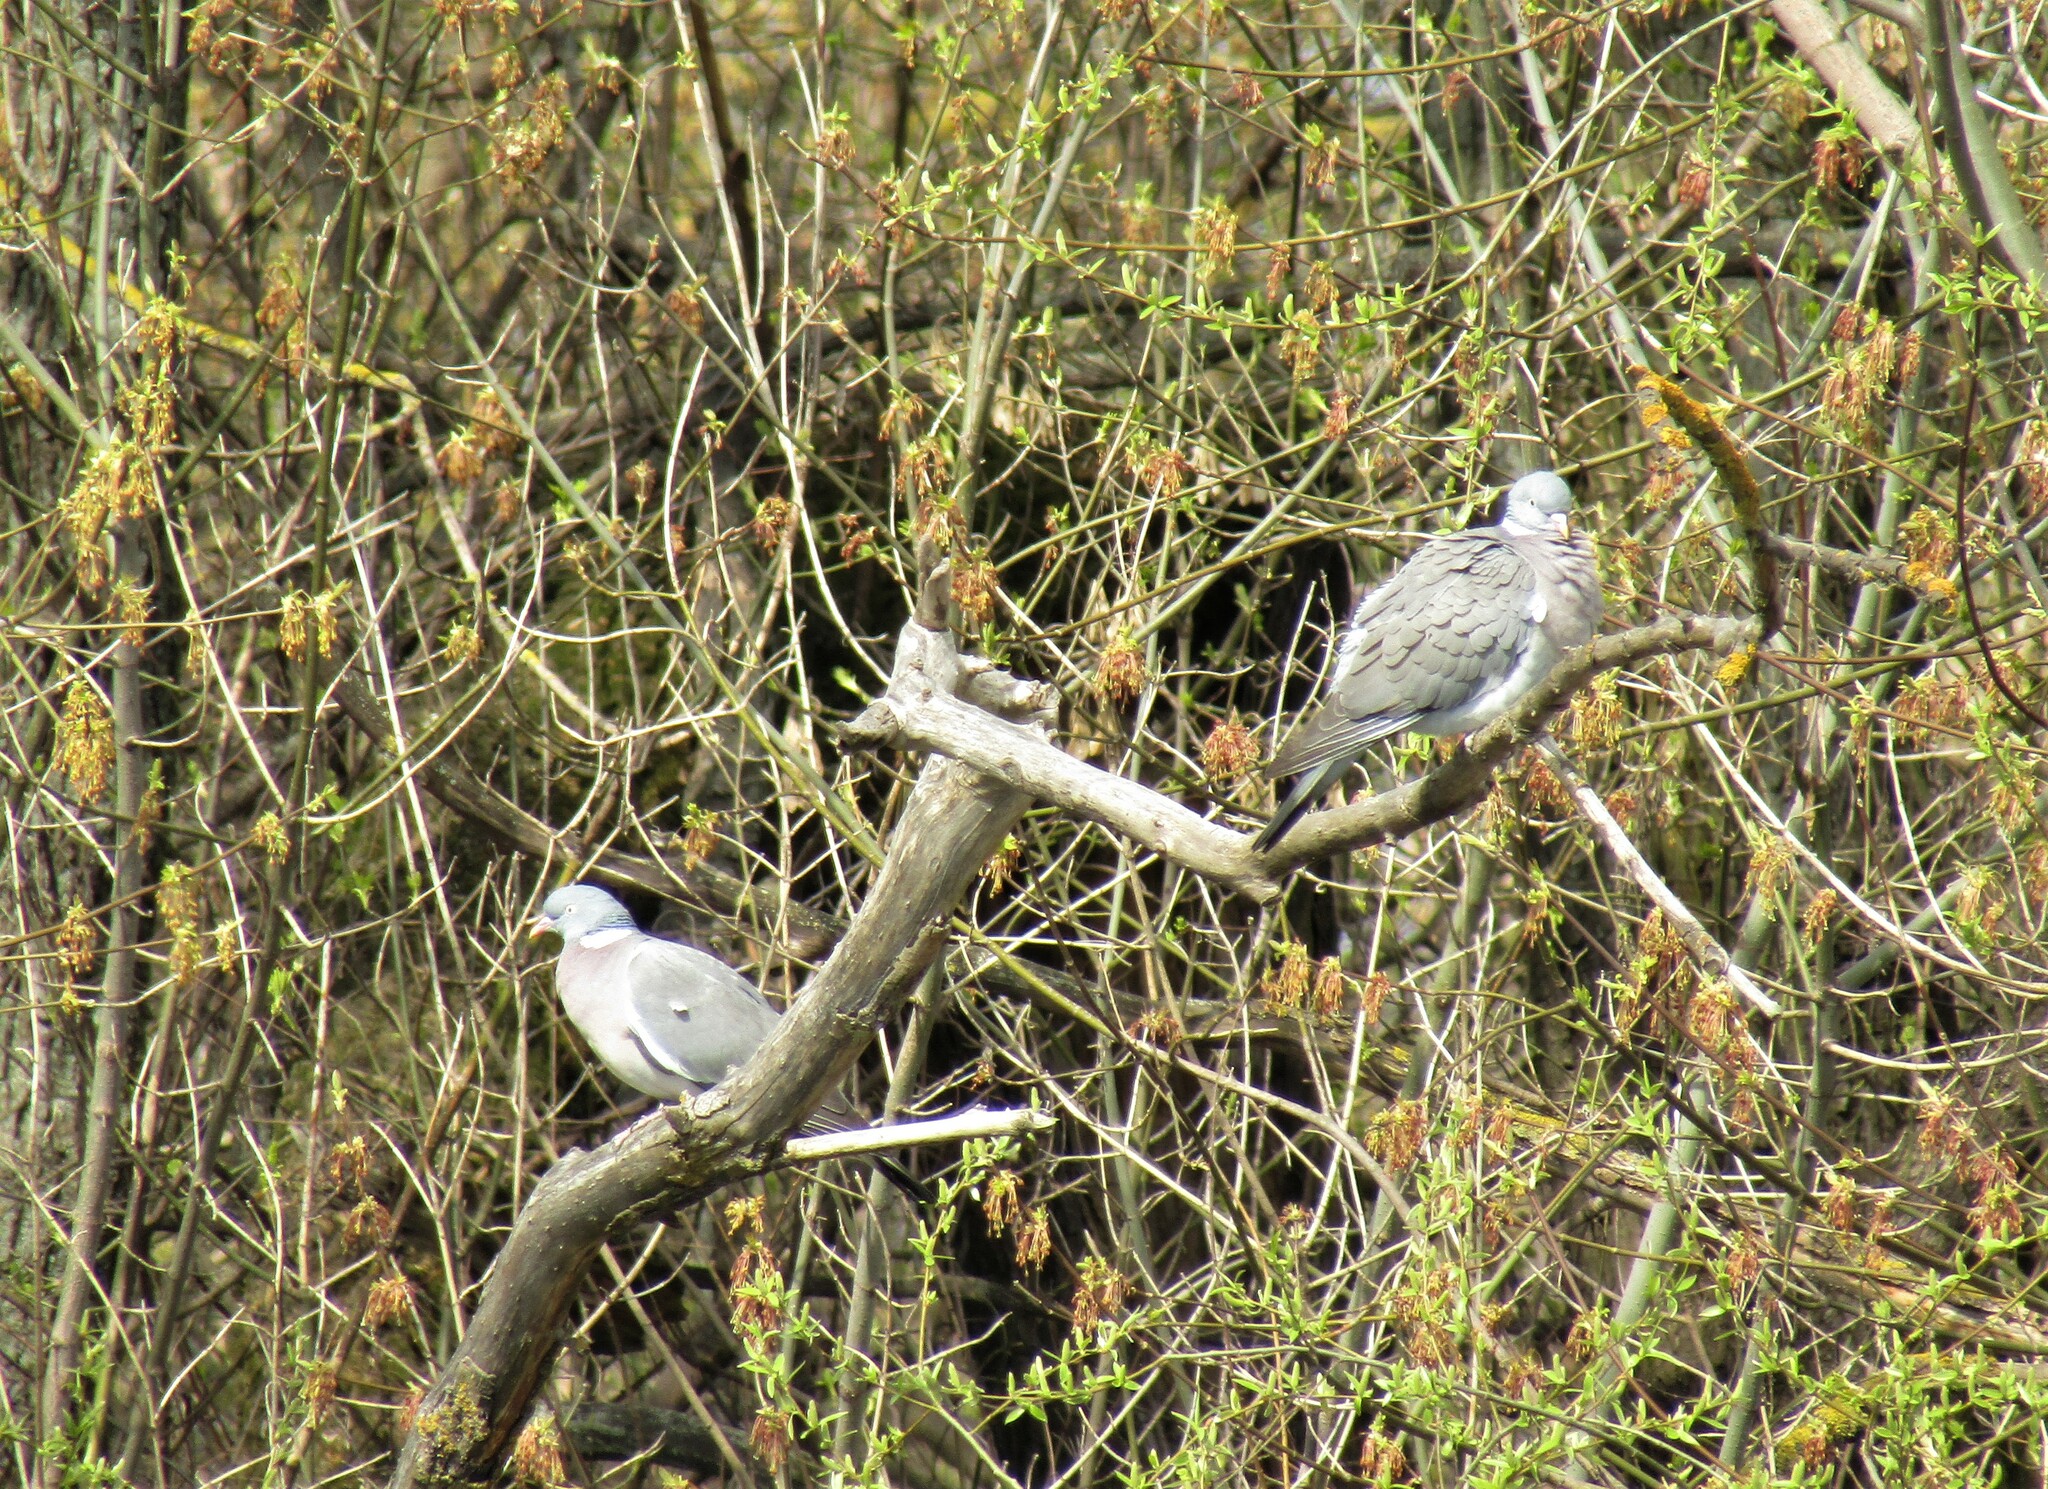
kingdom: Animalia
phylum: Chordata
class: Aves
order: Columbiformes
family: Columbidae
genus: Columba
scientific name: Columba palumbus
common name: Common wood pigeon
